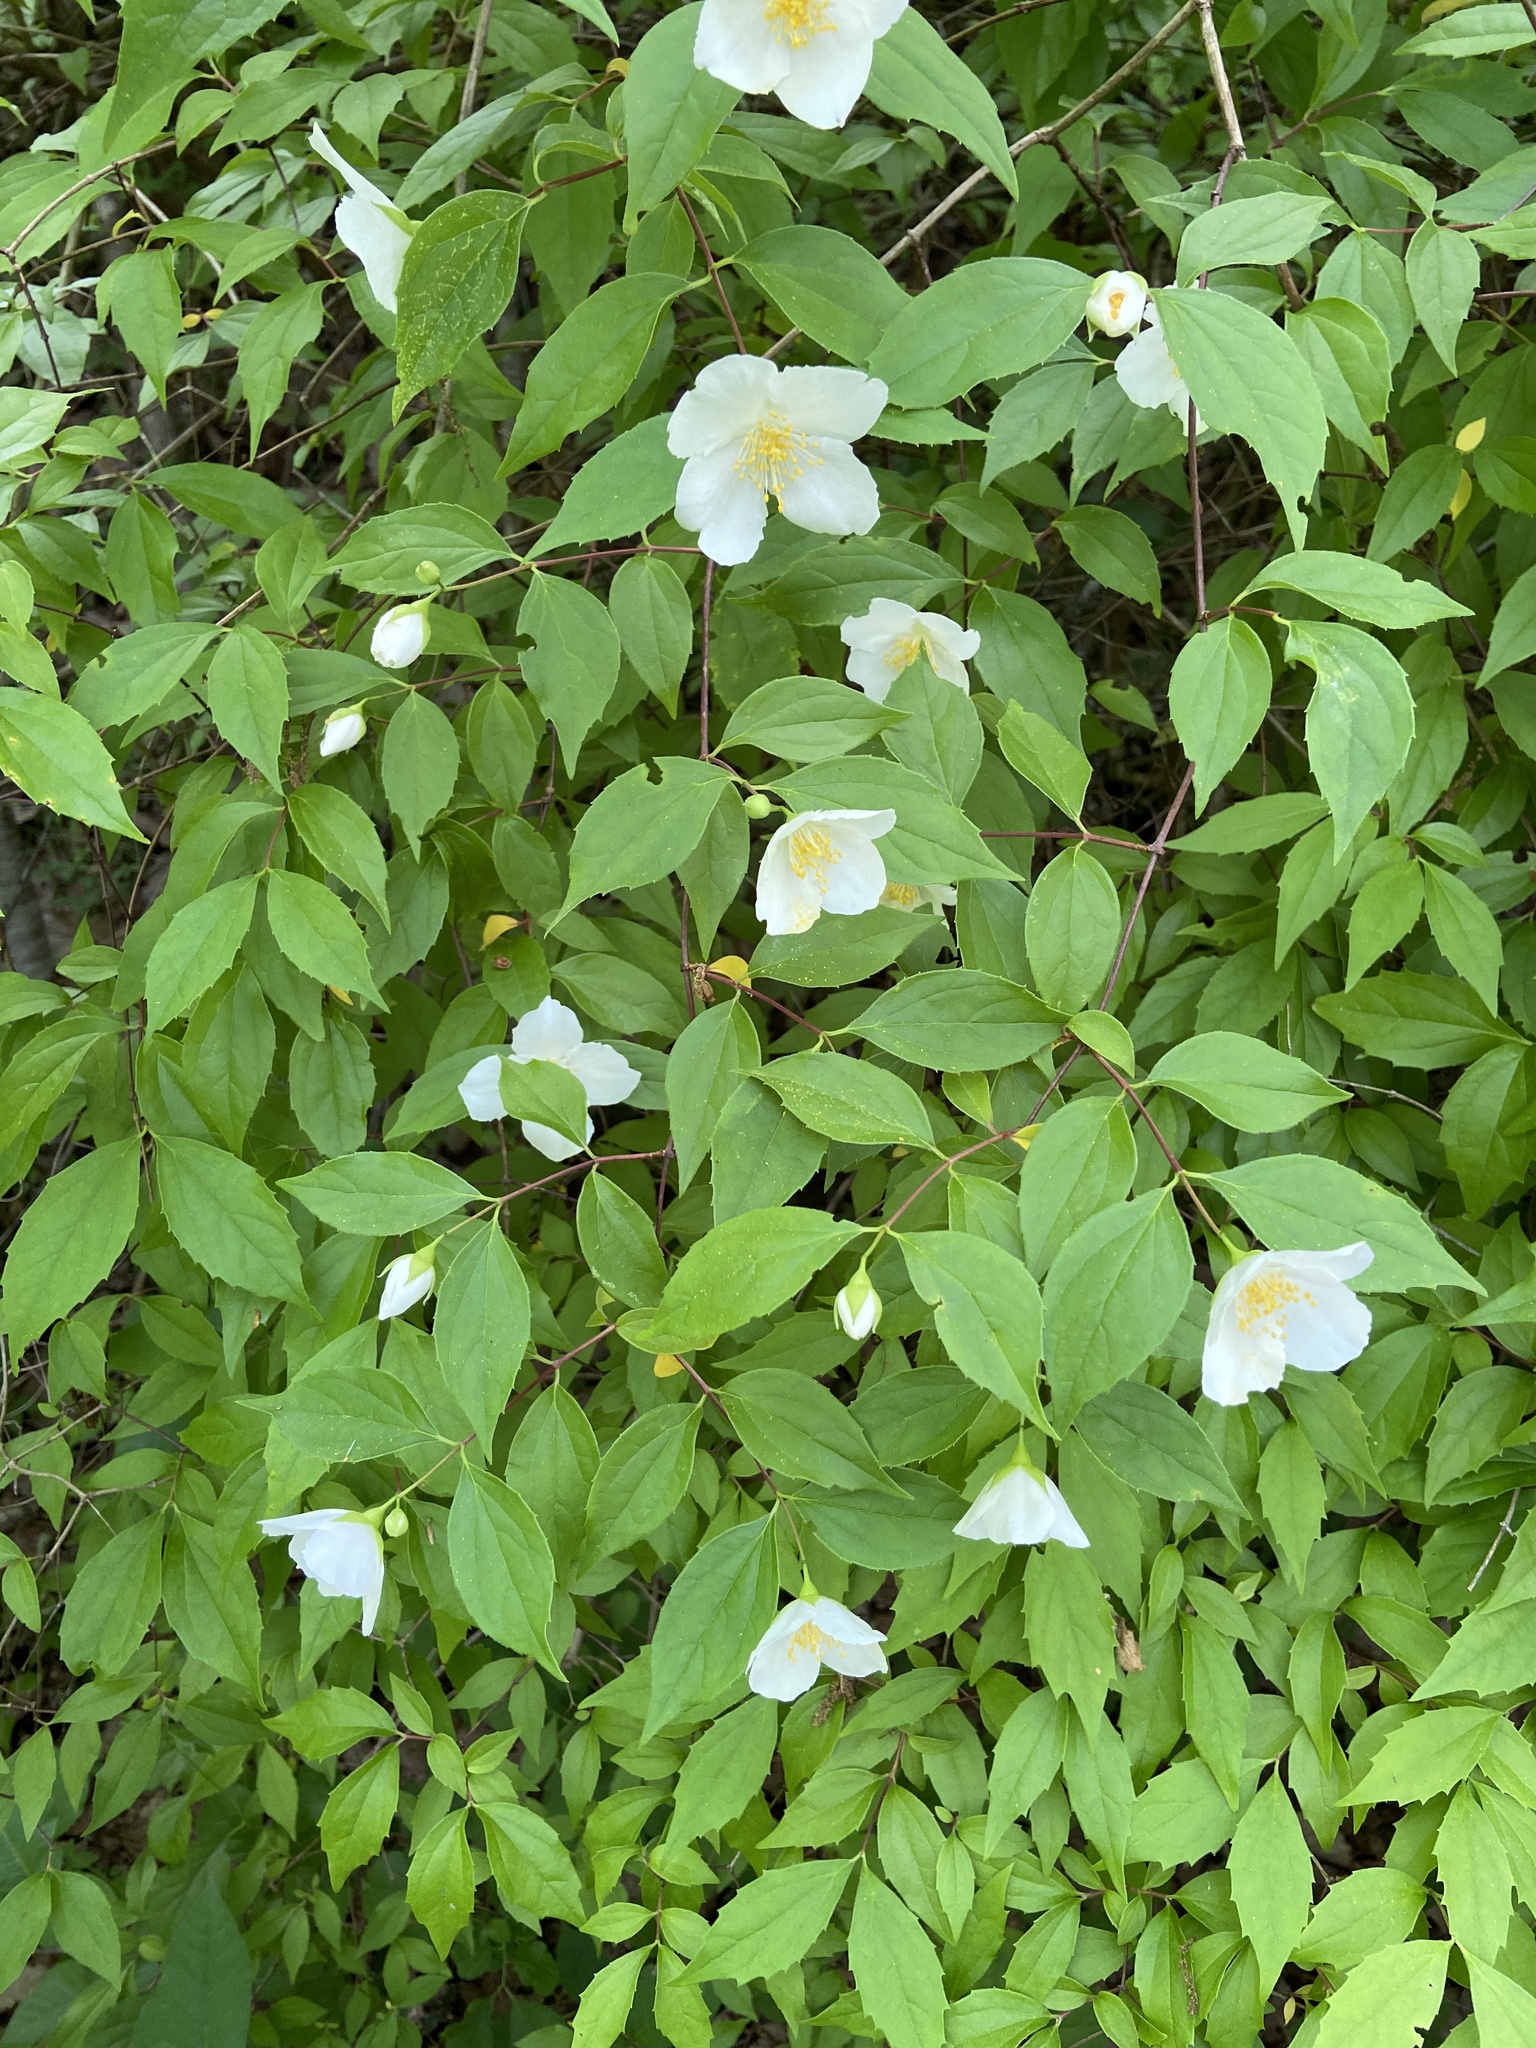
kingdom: Plantae
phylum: Tracheophyta
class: Magnoliopsida
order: Cornales
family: Hydrangeaceae
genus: Philadelphus
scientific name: Philadelphus coronarius
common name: Mock orange
